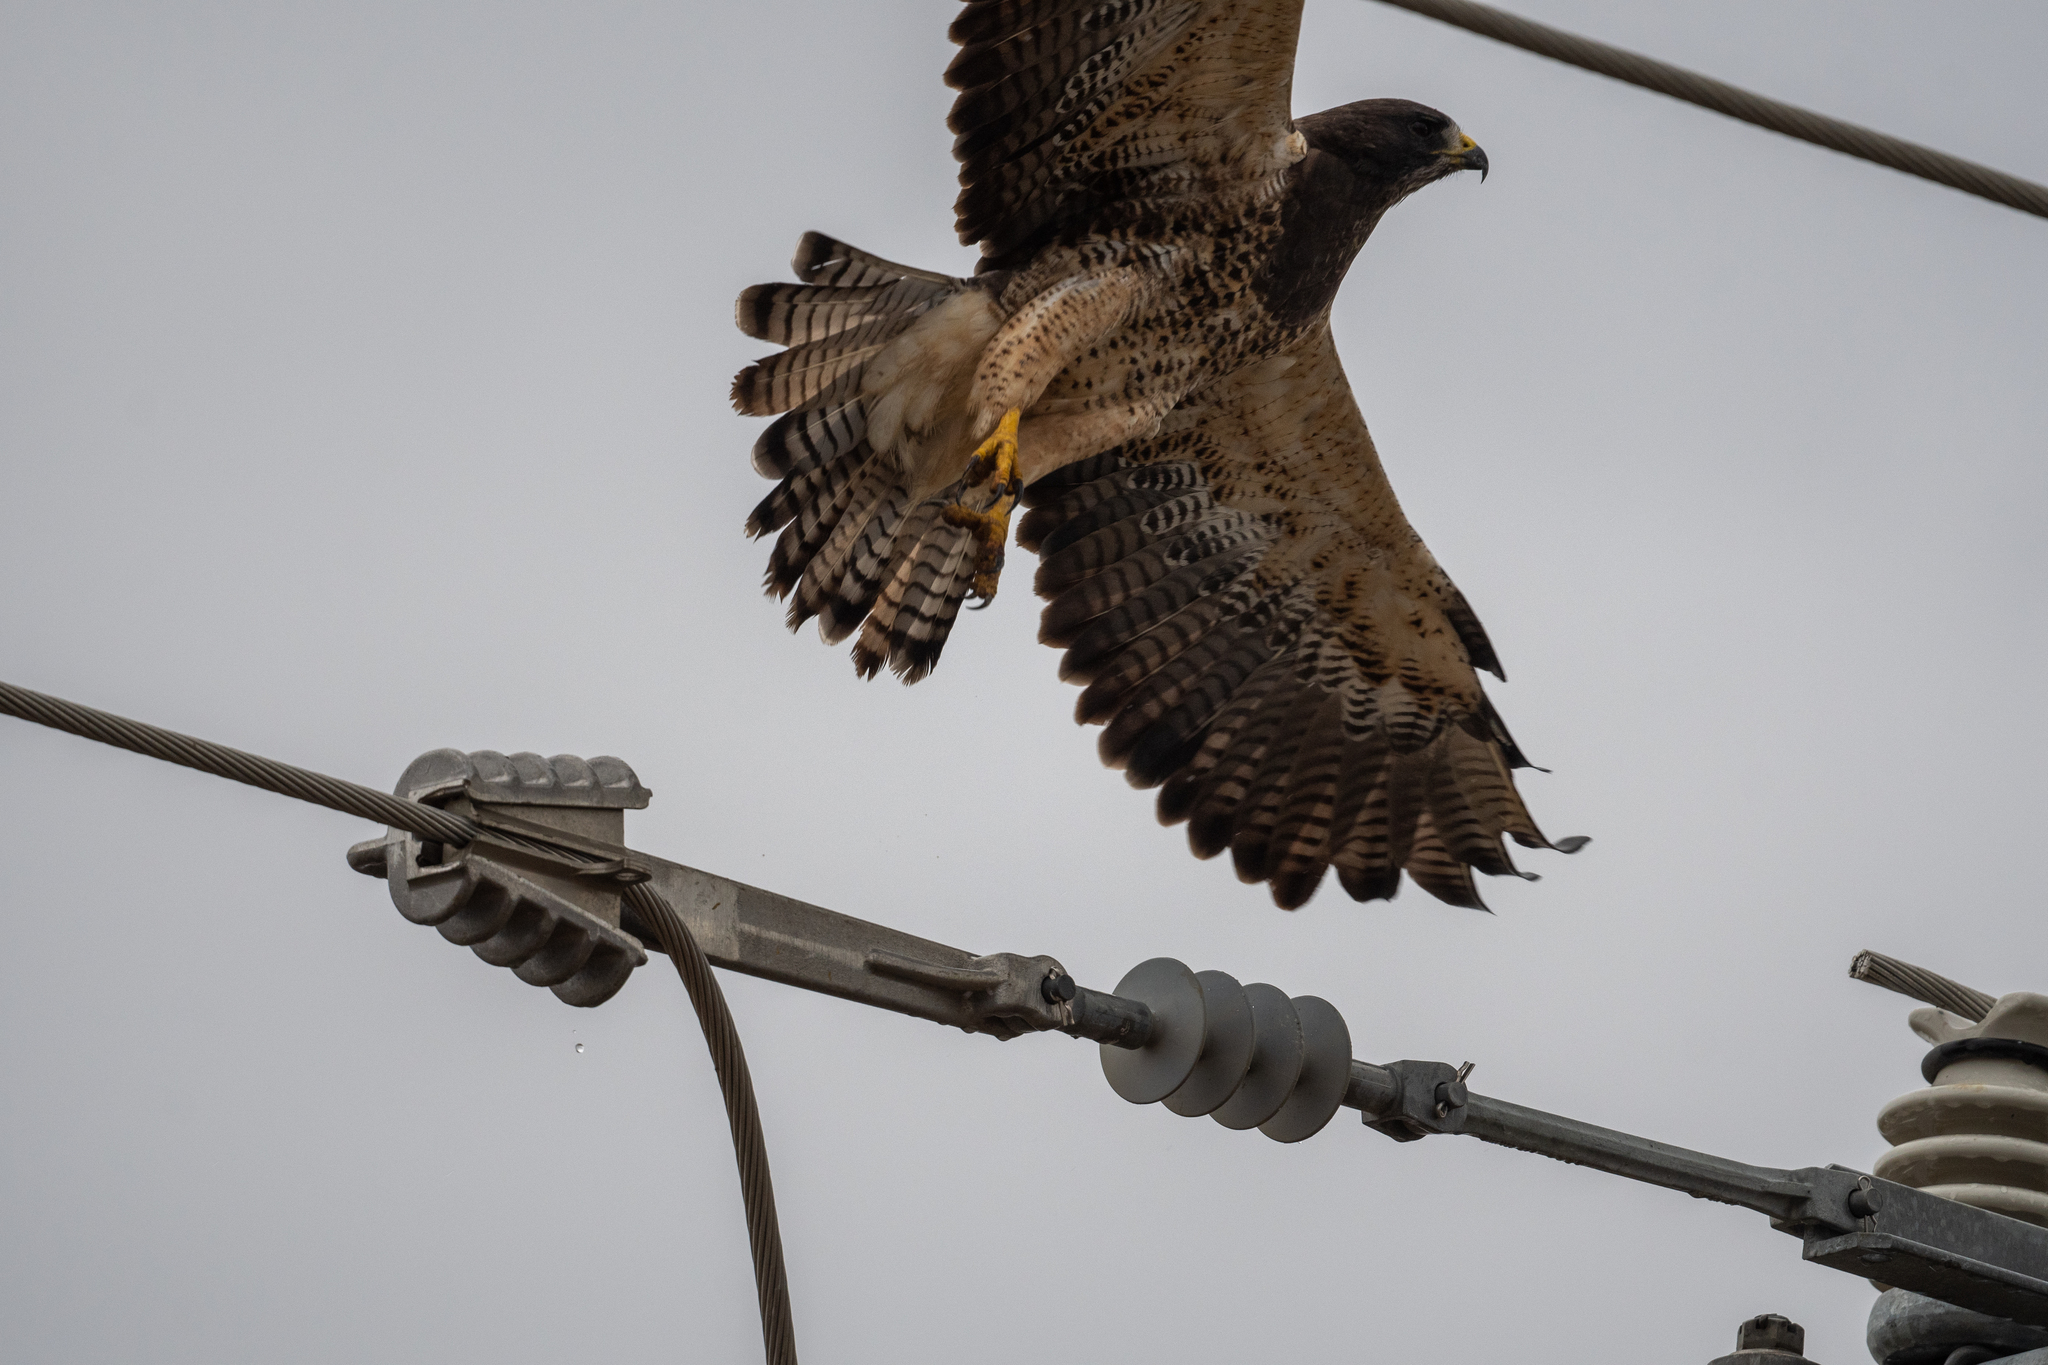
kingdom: Animalia
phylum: Chordata
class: Aves
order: Accipitriformes
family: Accipitridae
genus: Buteo
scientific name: Buteo swainsoni
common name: Swainson's hawk
